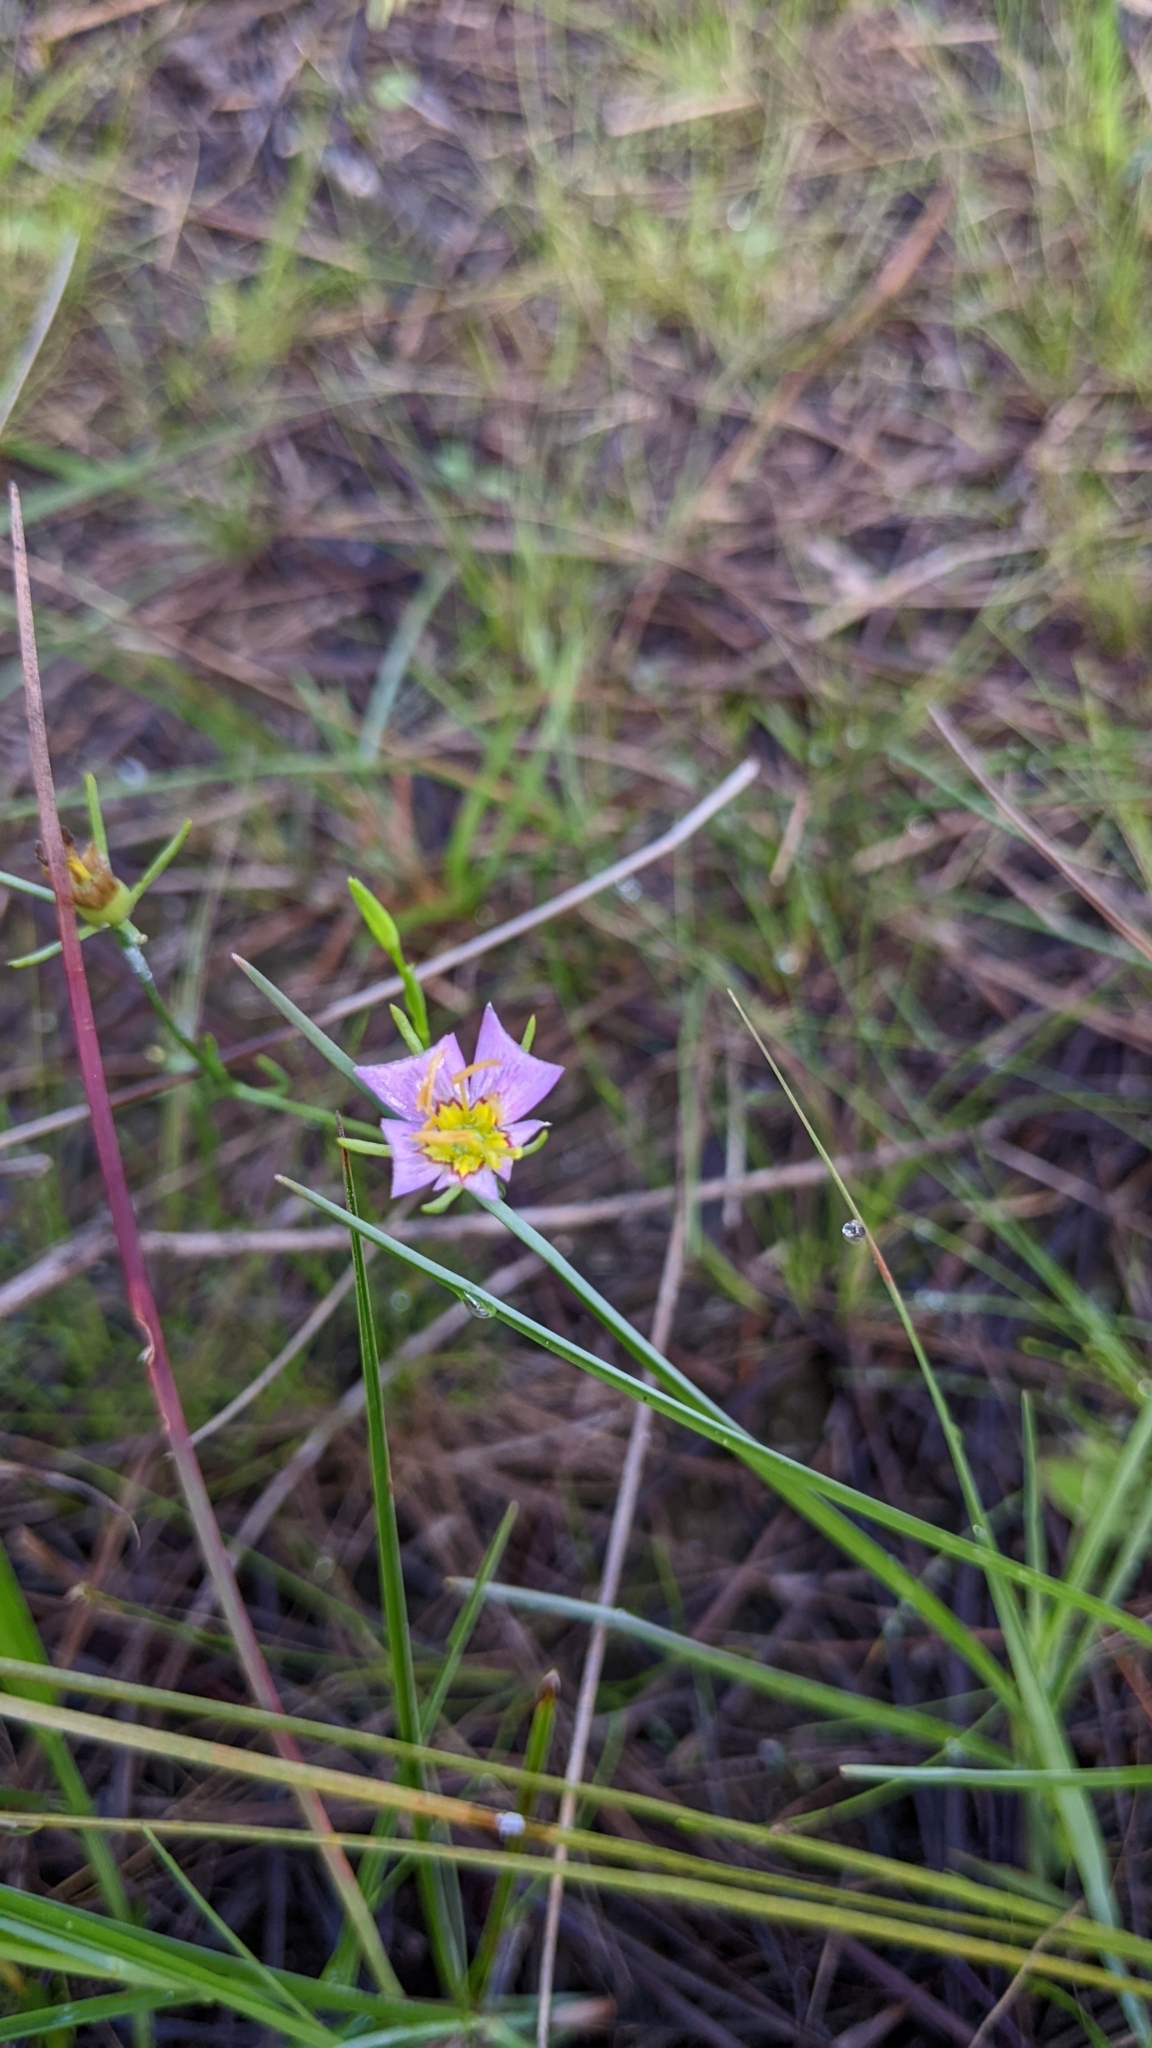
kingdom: Plantae
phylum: Tracheophyta
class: Magnoliopsida
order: Gentianales
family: Gentianaceae
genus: Sabatia
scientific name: Sabatia stellaris
